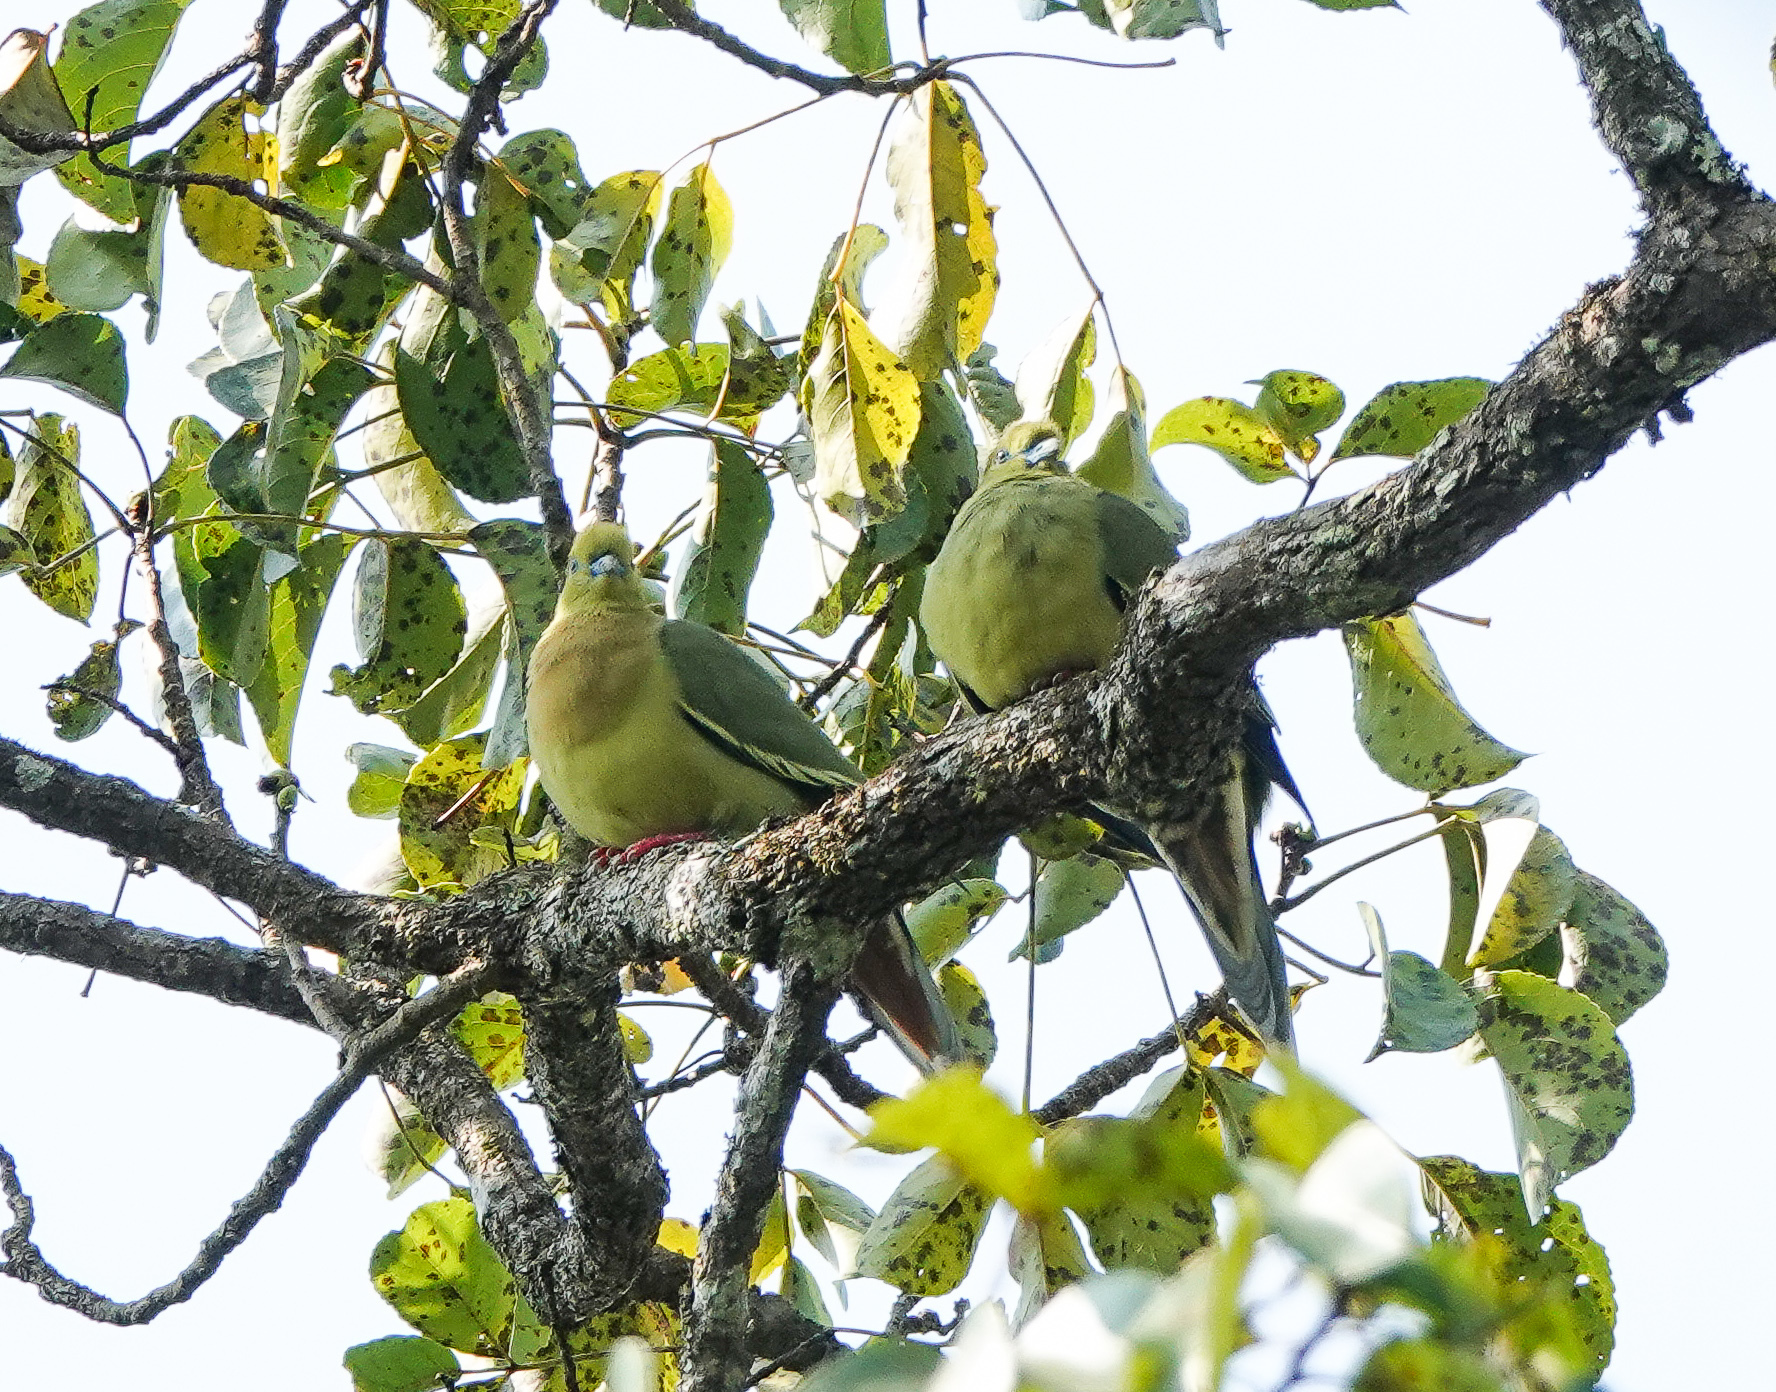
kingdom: Animalia
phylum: Chordata
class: Aves
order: Columbiformes
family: Columbidae
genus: Treron
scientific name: Treron apicauda
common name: Pin-tailed green pigeon
